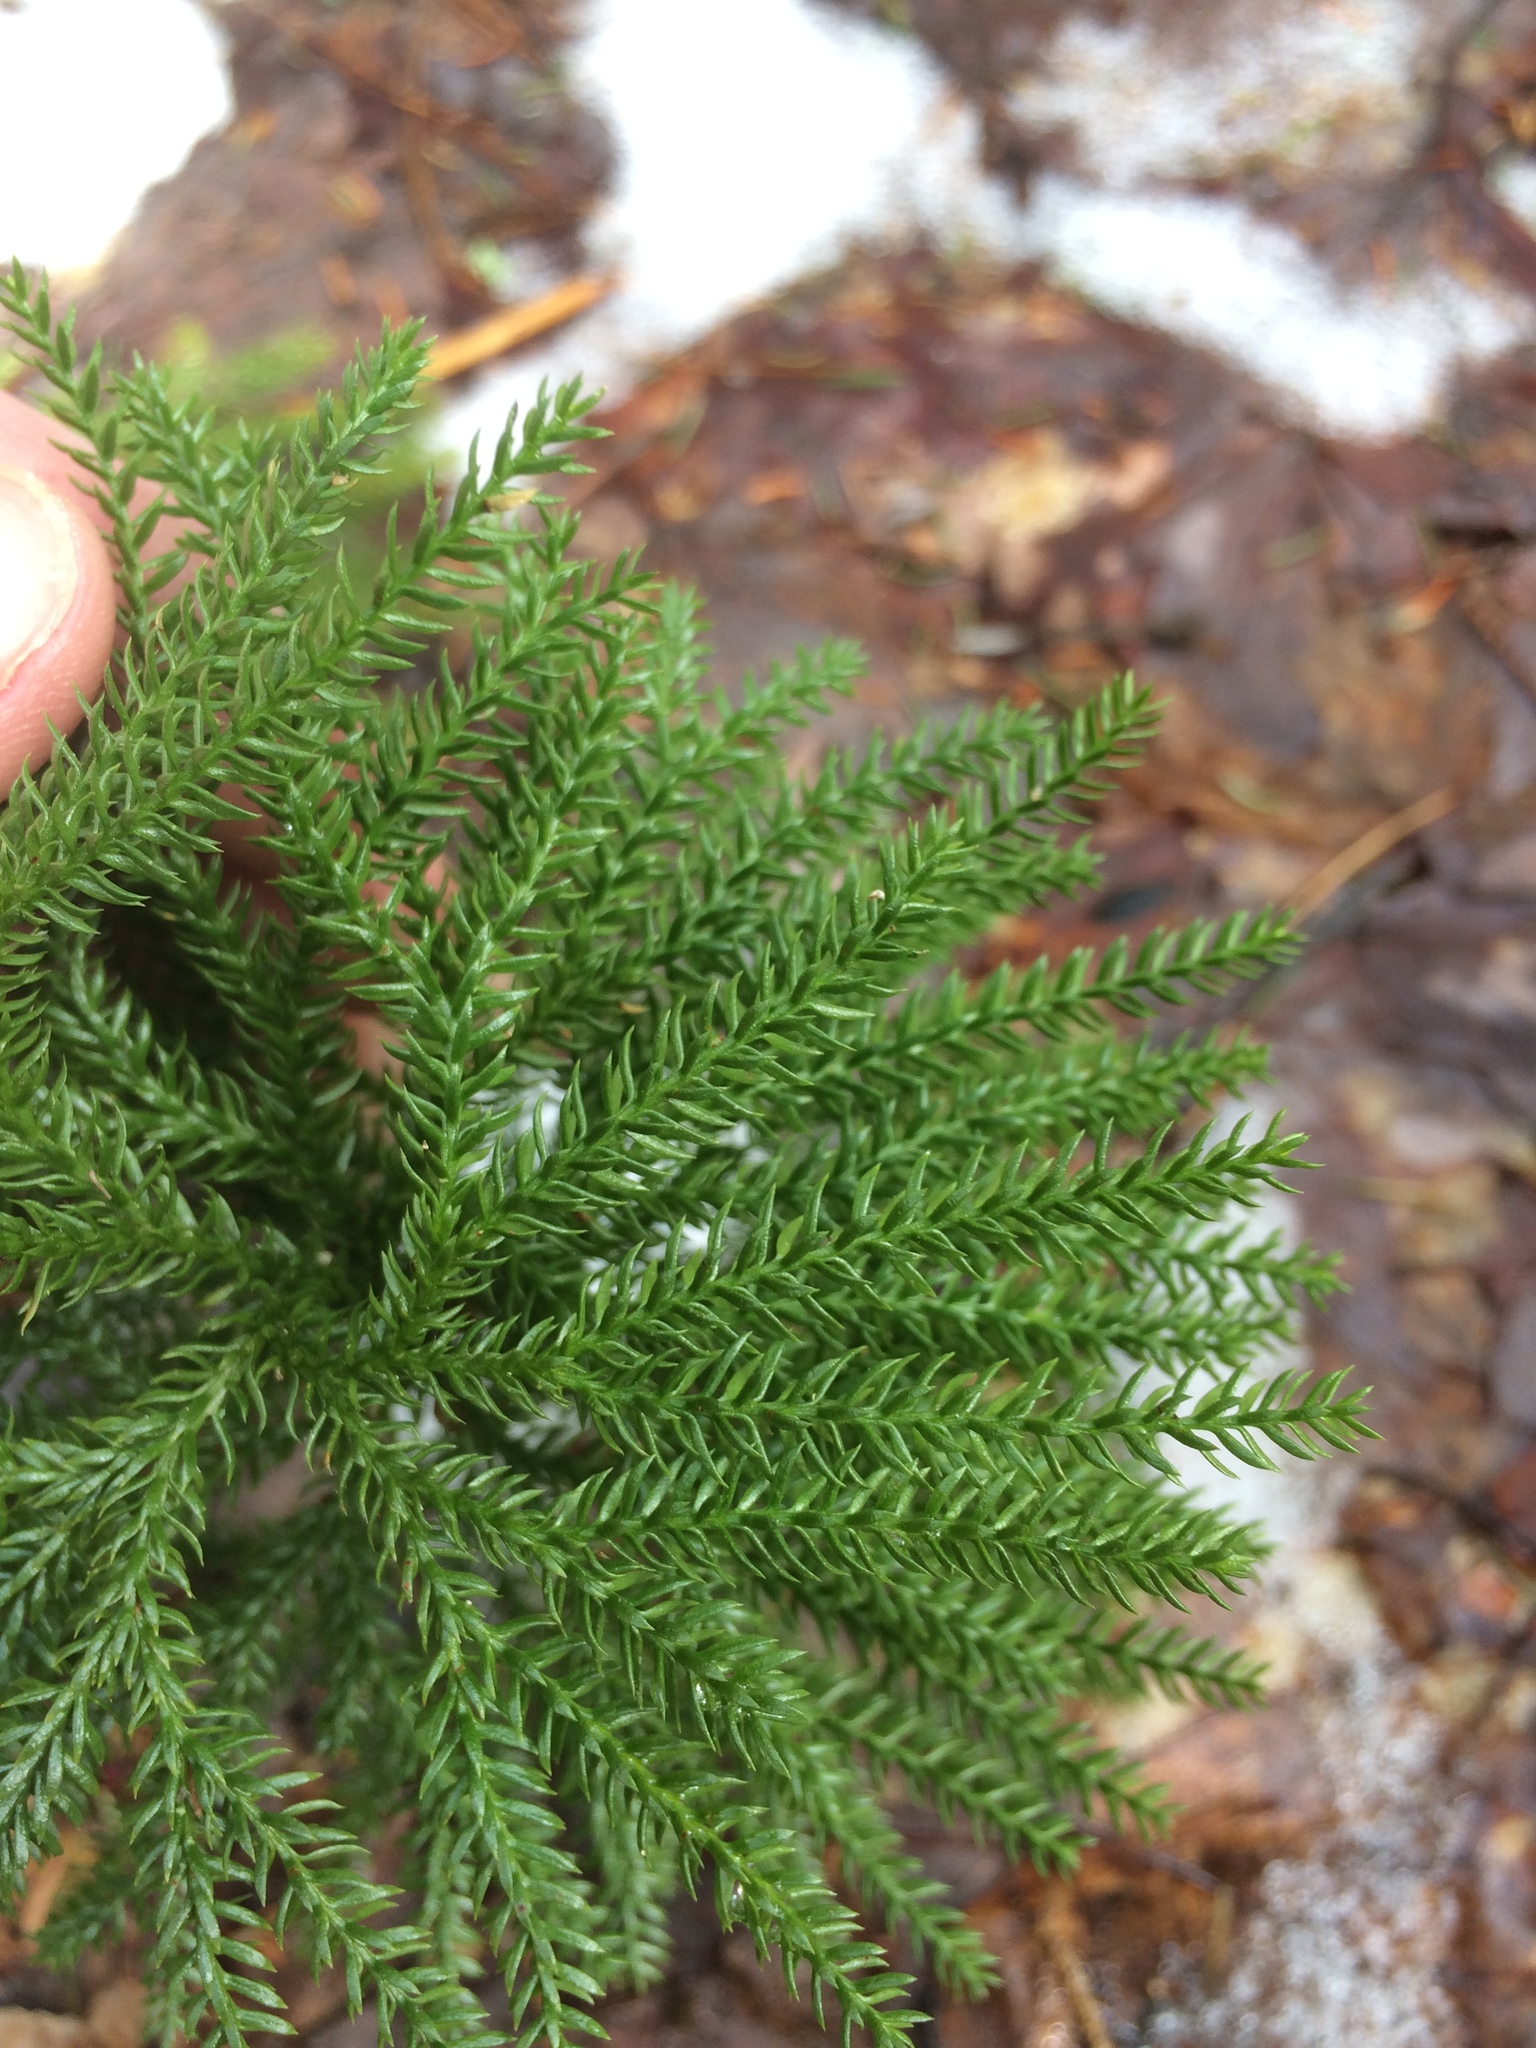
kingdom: Plantae
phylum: Tracheophyta
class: Lycopodiopsida
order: Lycopodiales
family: Lycopodiaceae
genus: Dendrolycopodium
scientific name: Dendrolycopodium dendroideum
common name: Northern tree-clubmoss
